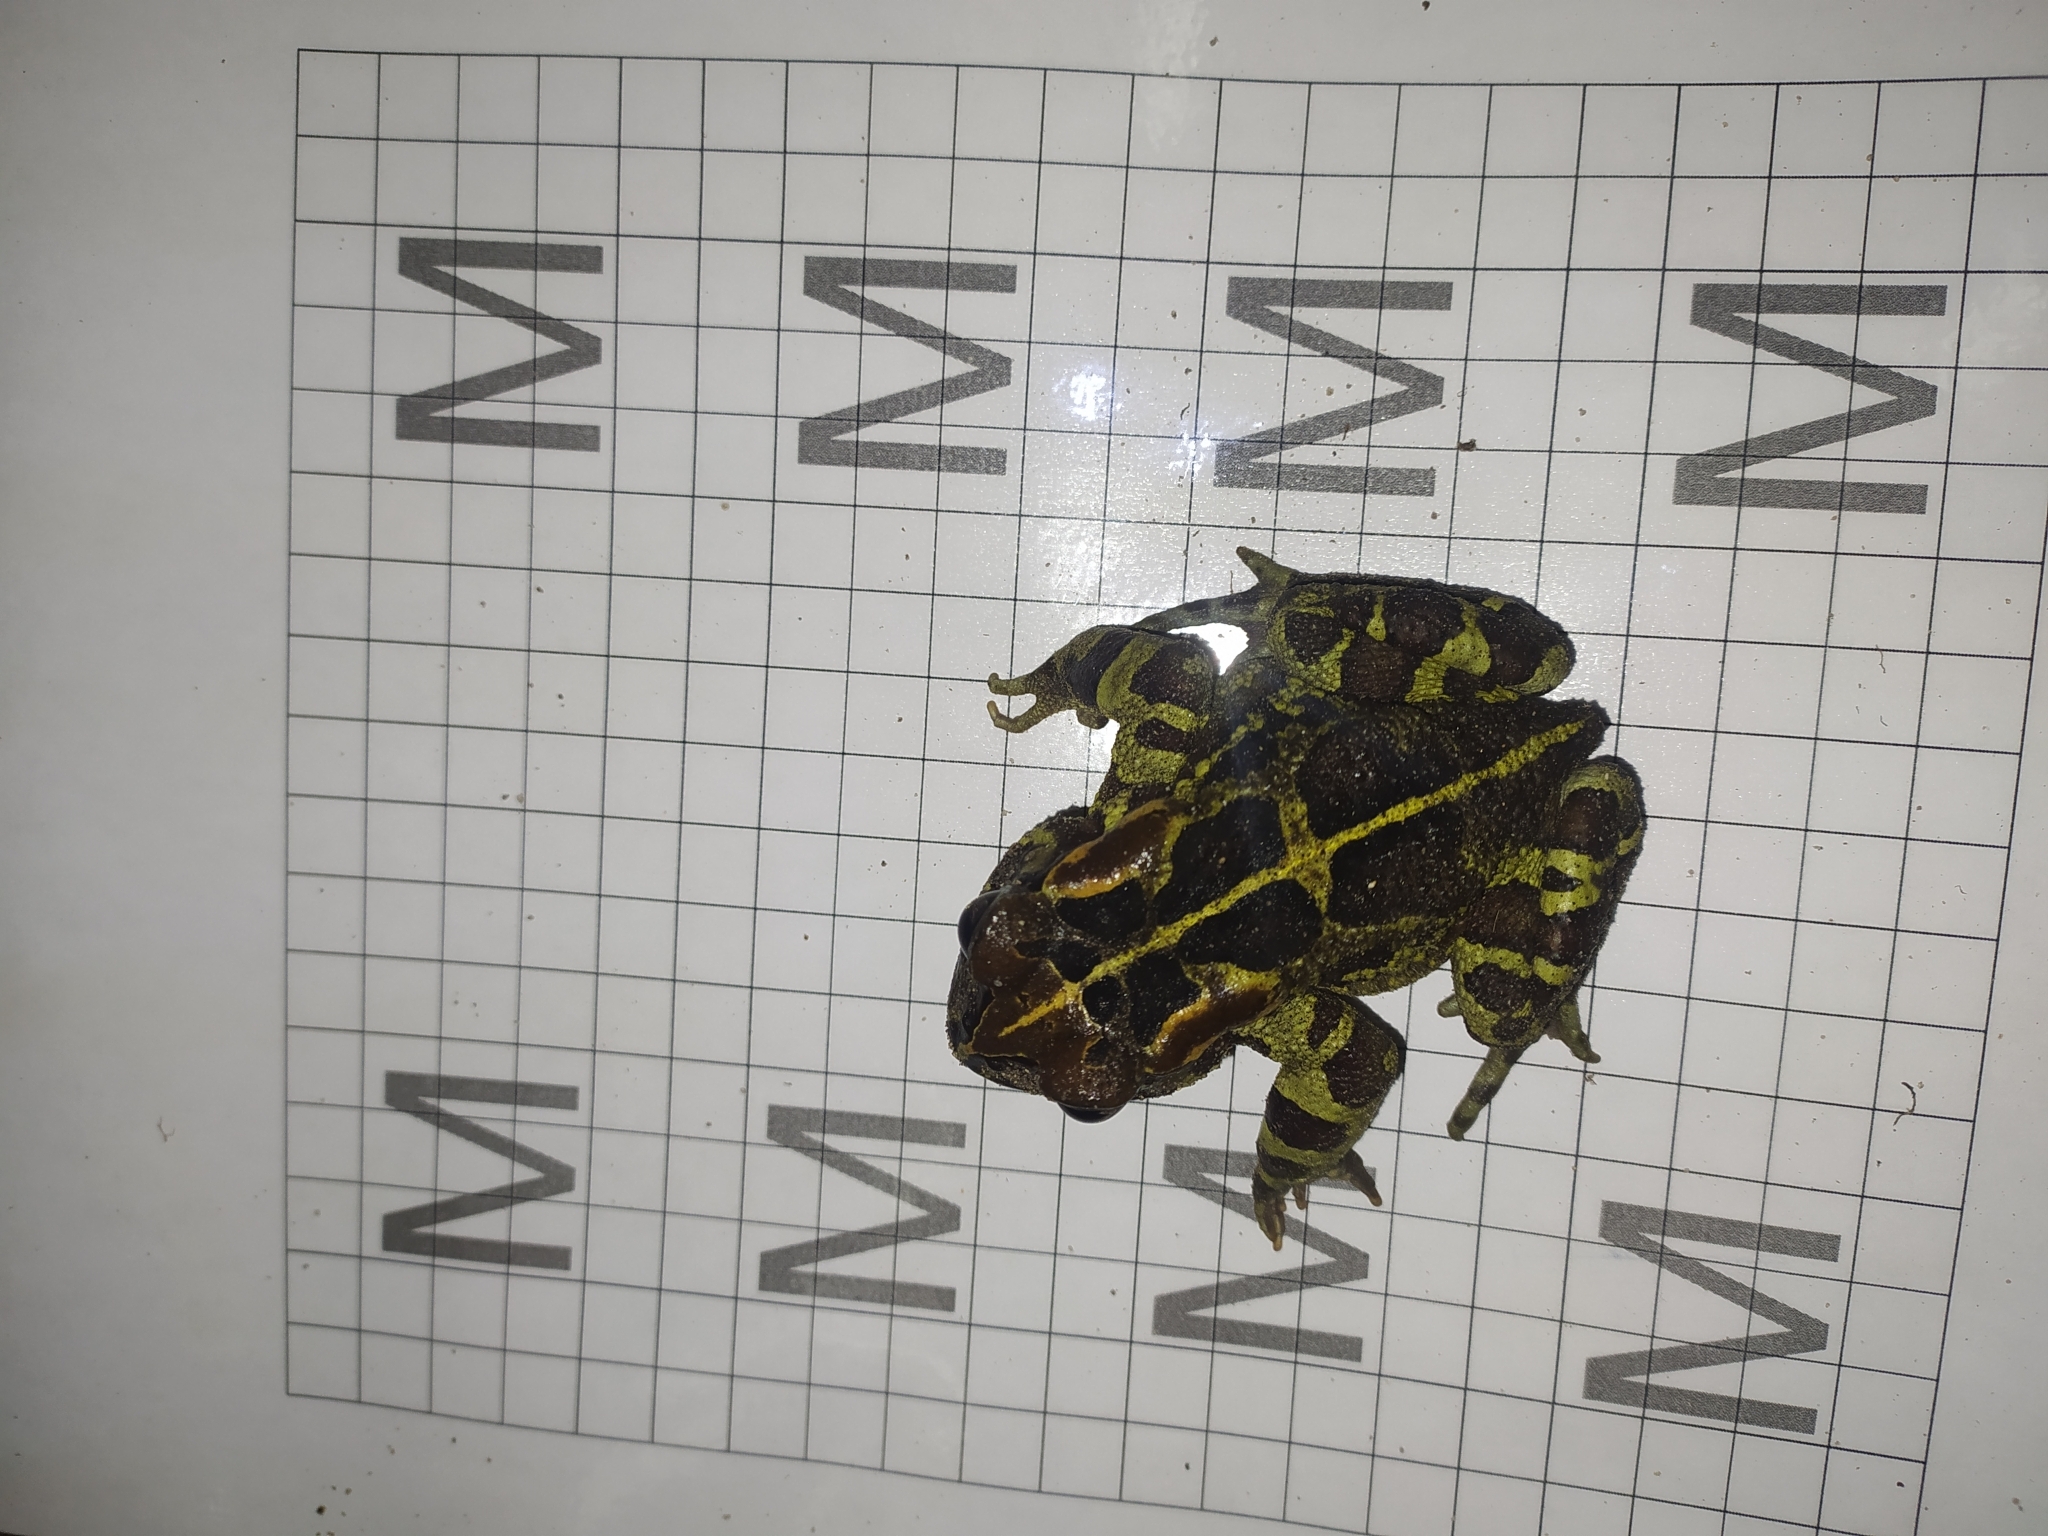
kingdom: Animalia
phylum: Chordata
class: Amphibia
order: Anura
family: Bufonidae
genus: Sclerophrys
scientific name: Sclerophrys pantherina
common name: Panther toad
